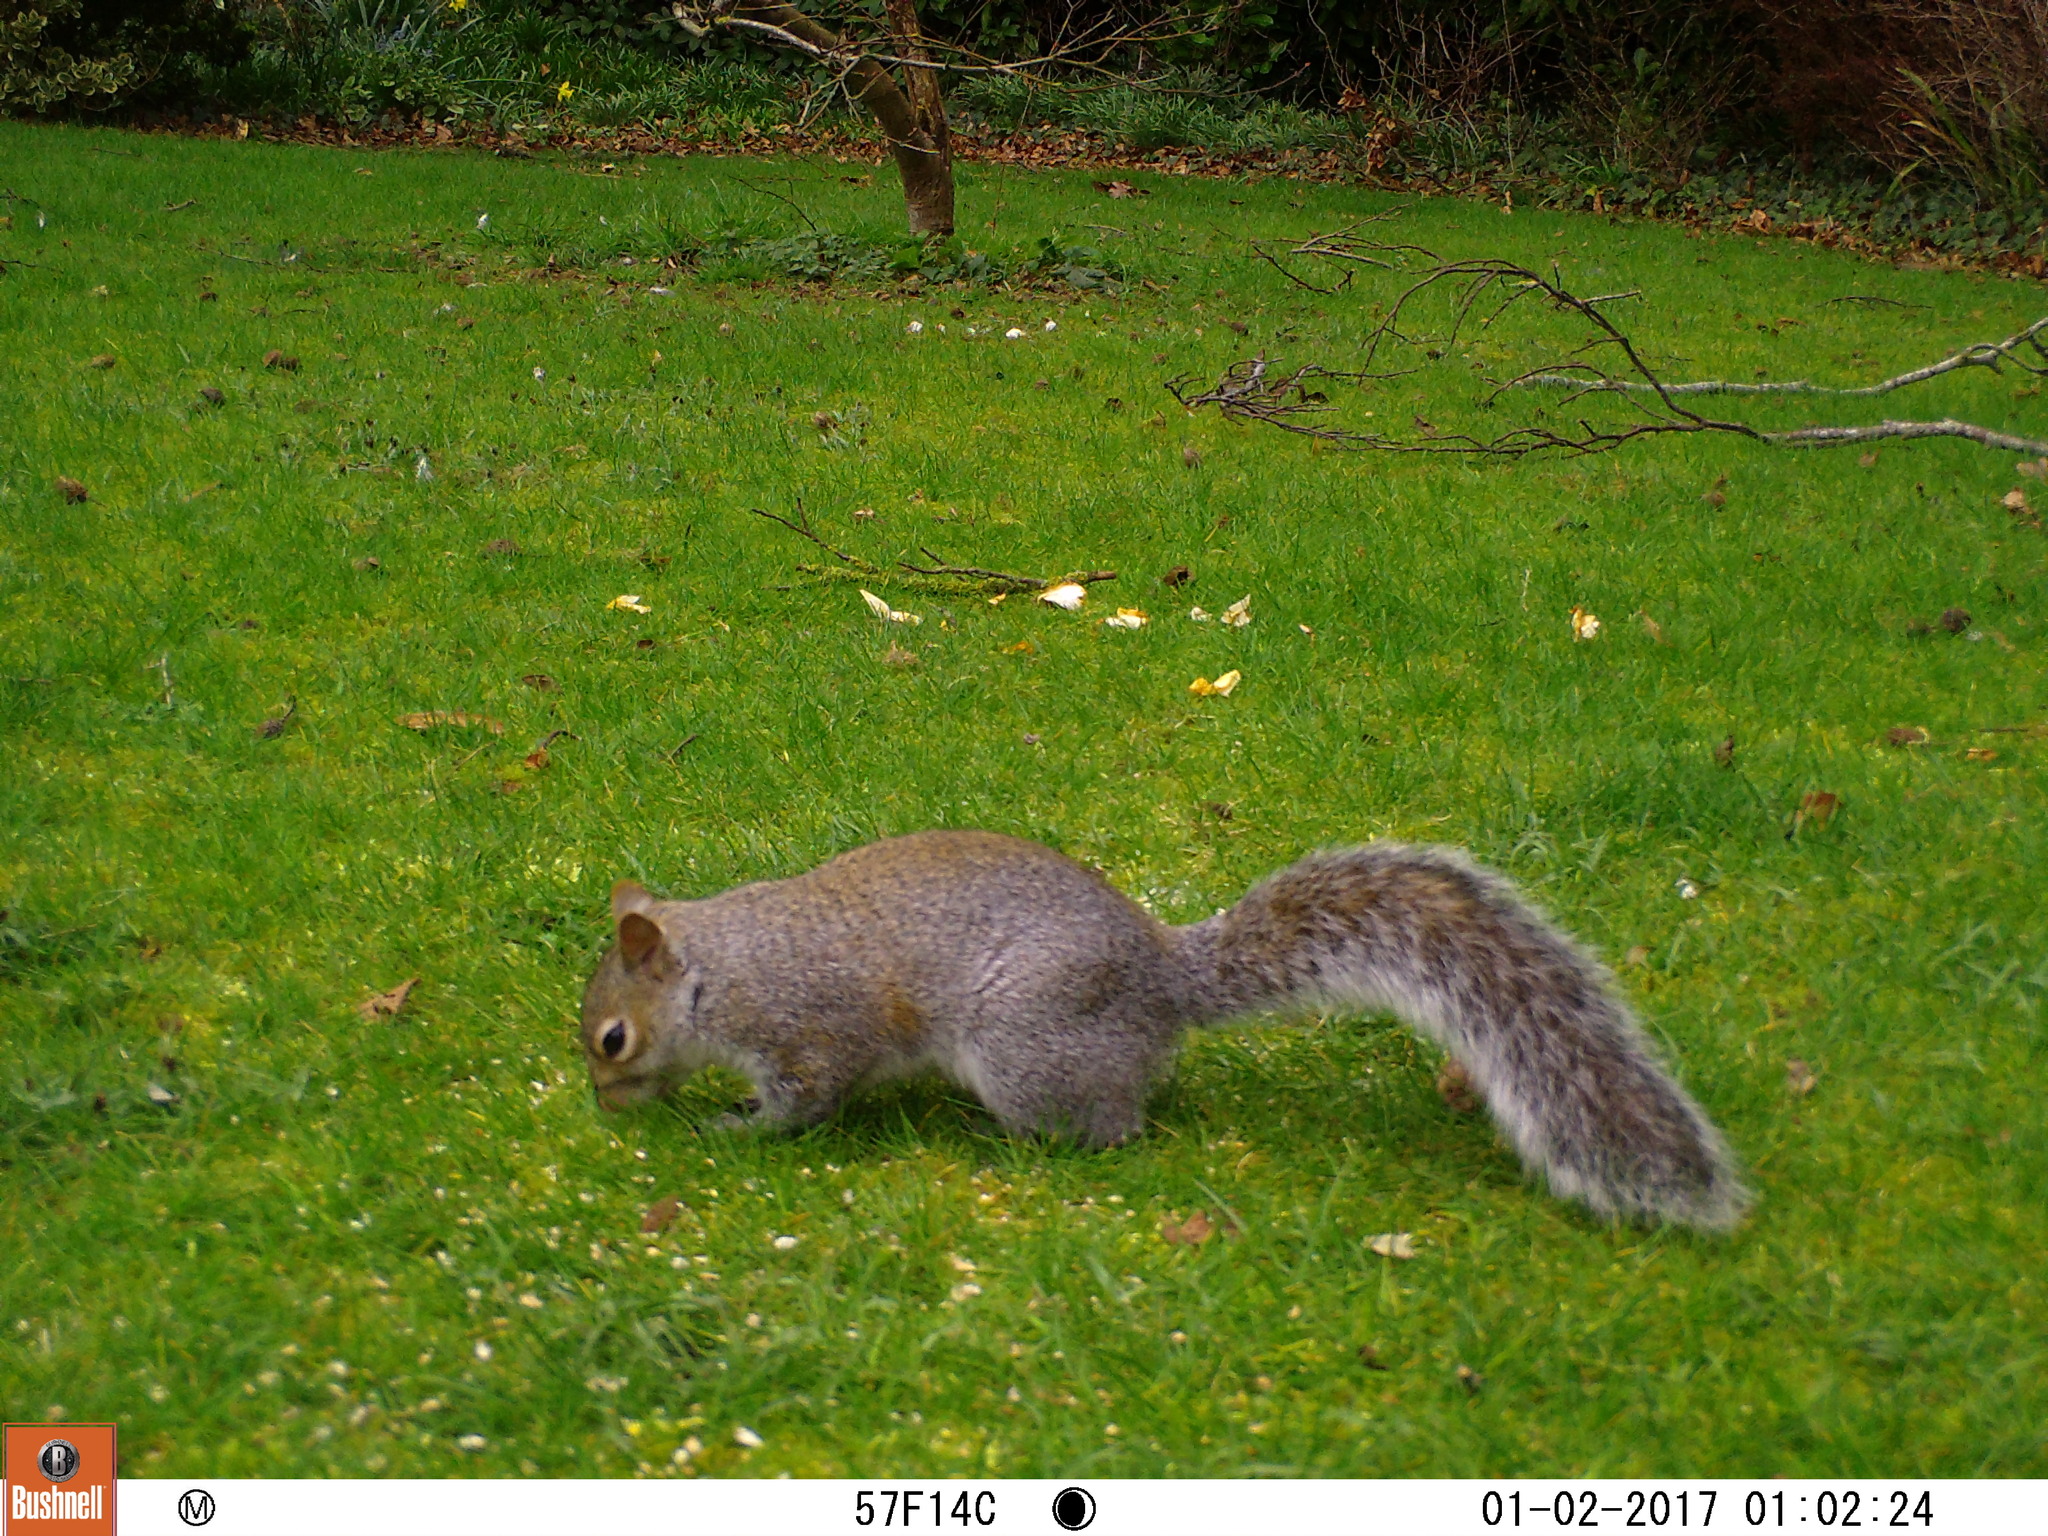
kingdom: Animalia
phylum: Chordata
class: Mammalia
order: Rodentia
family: Sciuridae
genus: Sciurus
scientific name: Sciurus carolinensis
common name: Eastern gray squirrel
